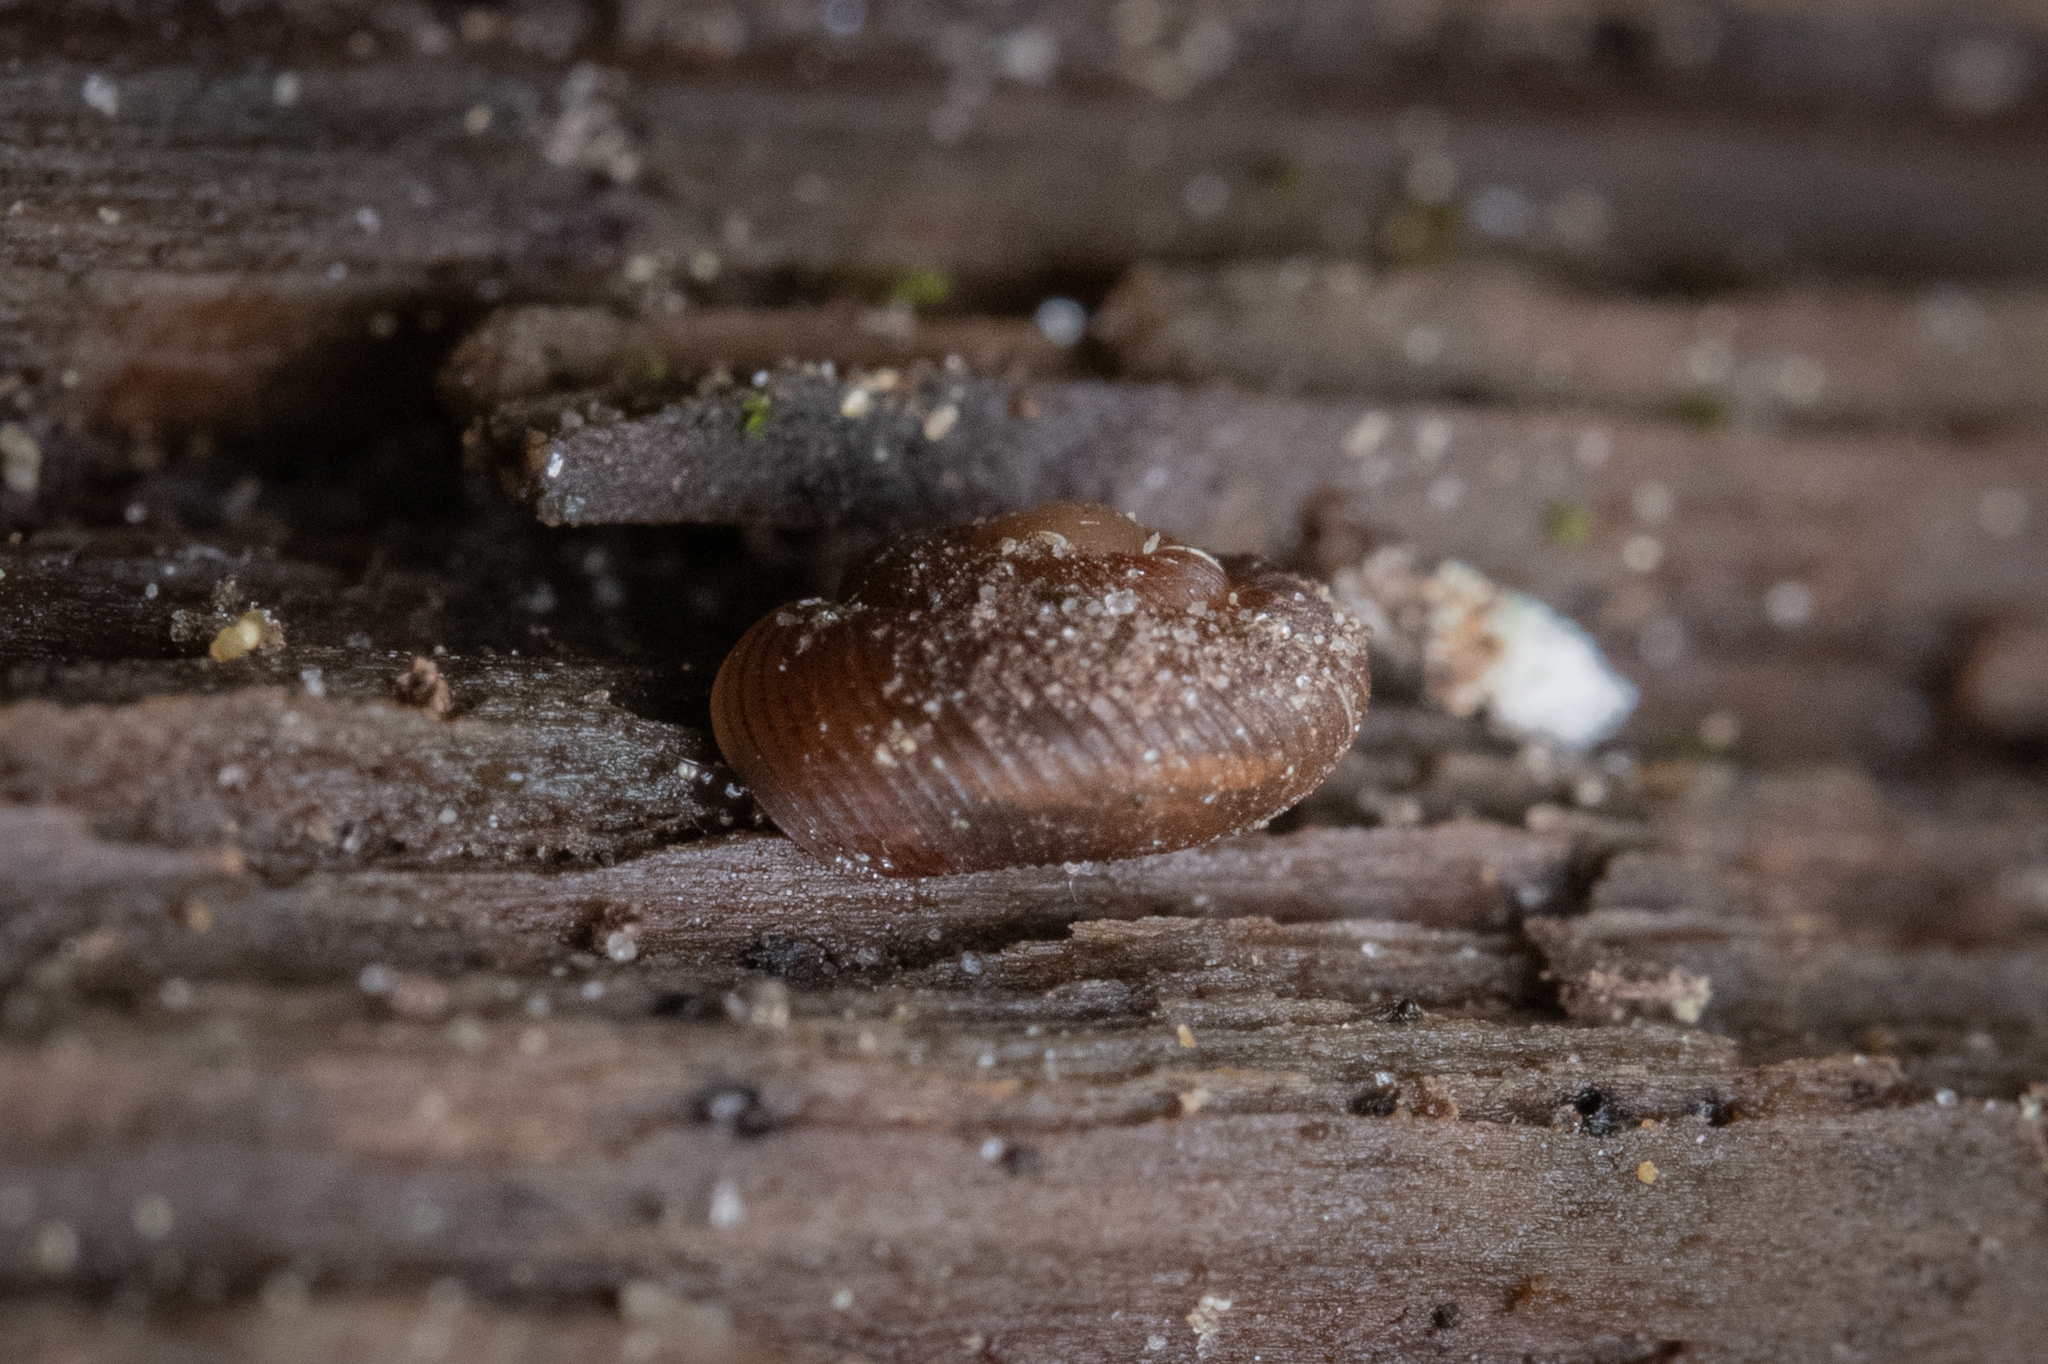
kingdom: Animalia
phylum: Mollusca
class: Gastropoda
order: Stylommatophora
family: Discidae
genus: Discus
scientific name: Discus whitneyi
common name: Forest disc
